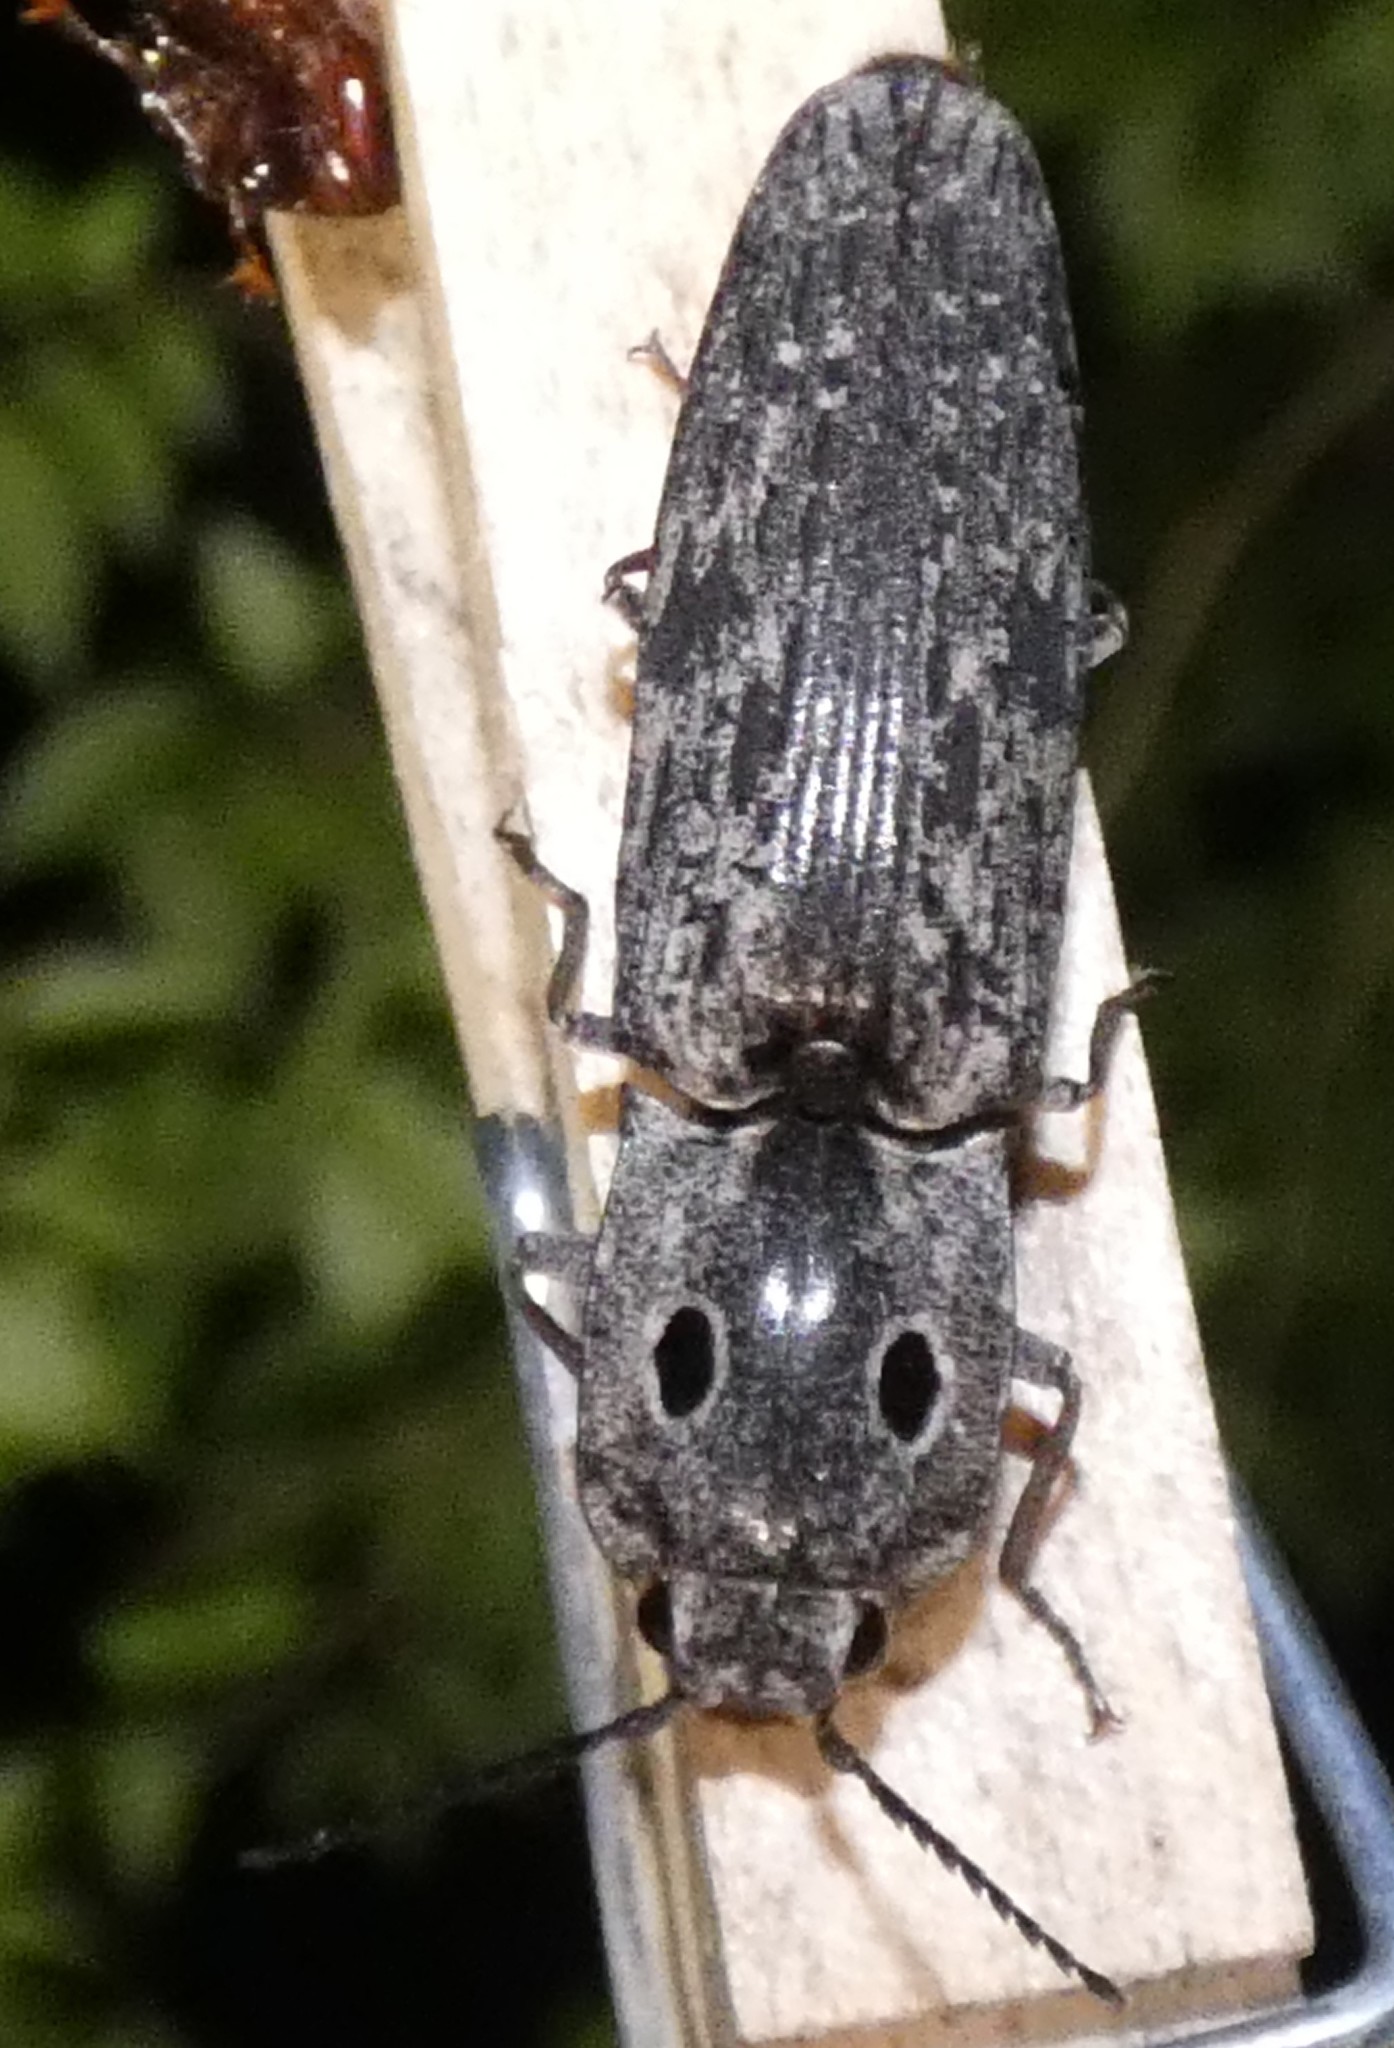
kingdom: Animalia
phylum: Arthropoda
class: Insecta
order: Coleoptera
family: Elateridae
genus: Alaus
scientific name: Alaus myops
